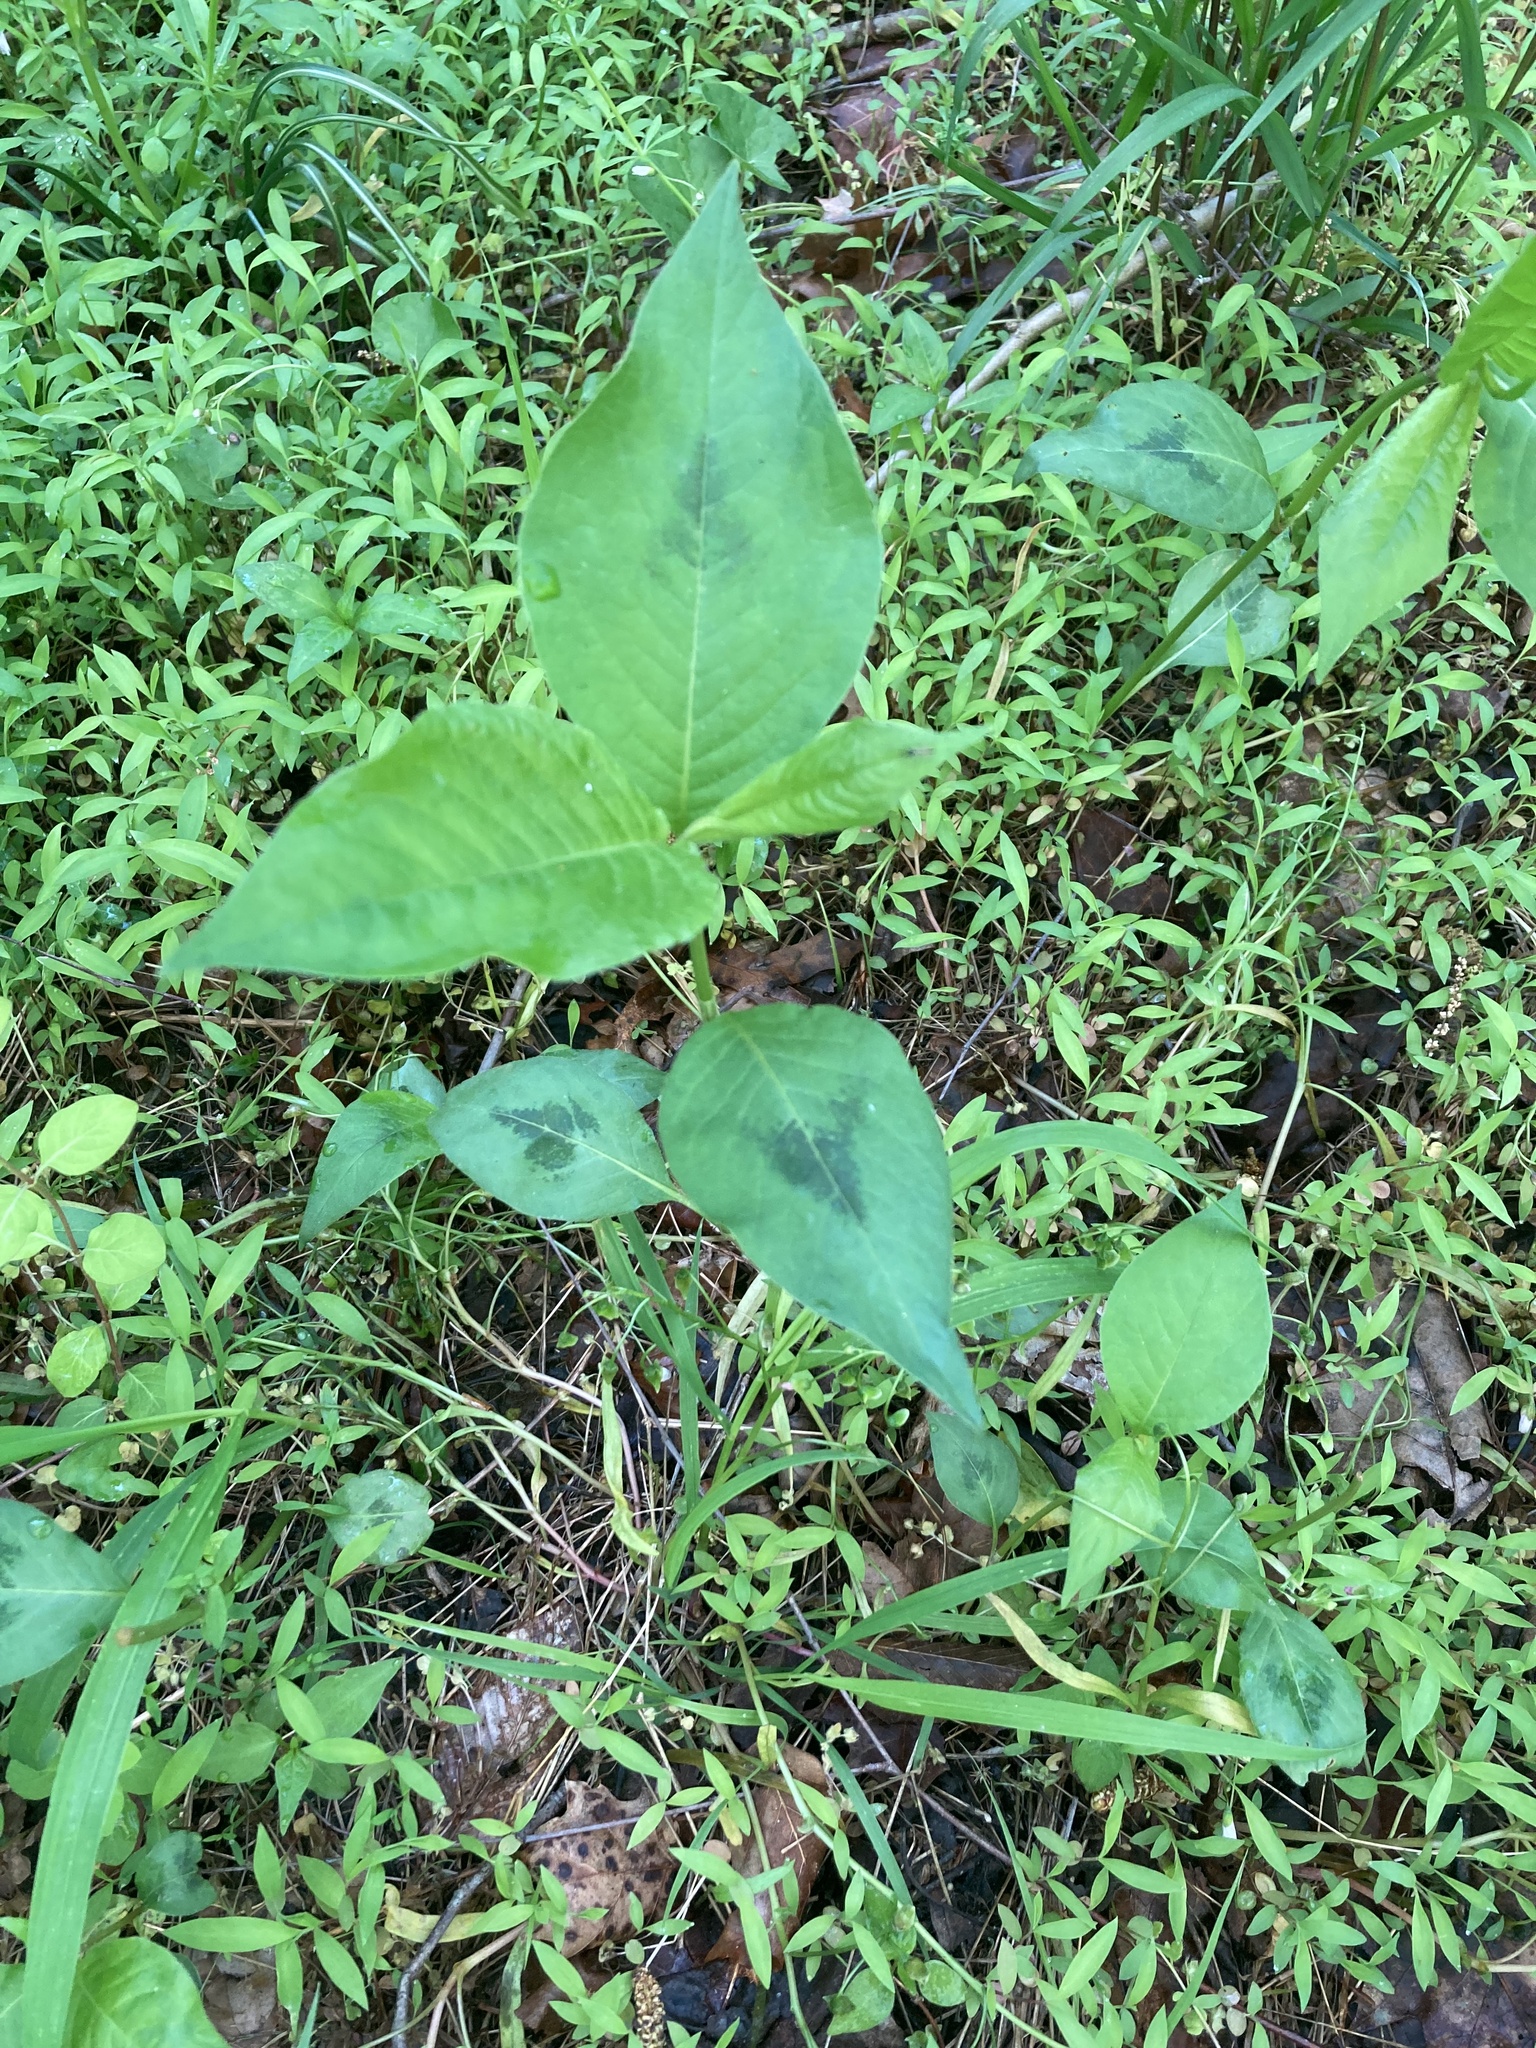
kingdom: Plantae
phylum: Tracheophyta
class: Magnoliopsida
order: Caryophyllales
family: Polygonaceae
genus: Persicaria
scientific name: Persicaria virginiana
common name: Jumpseed
